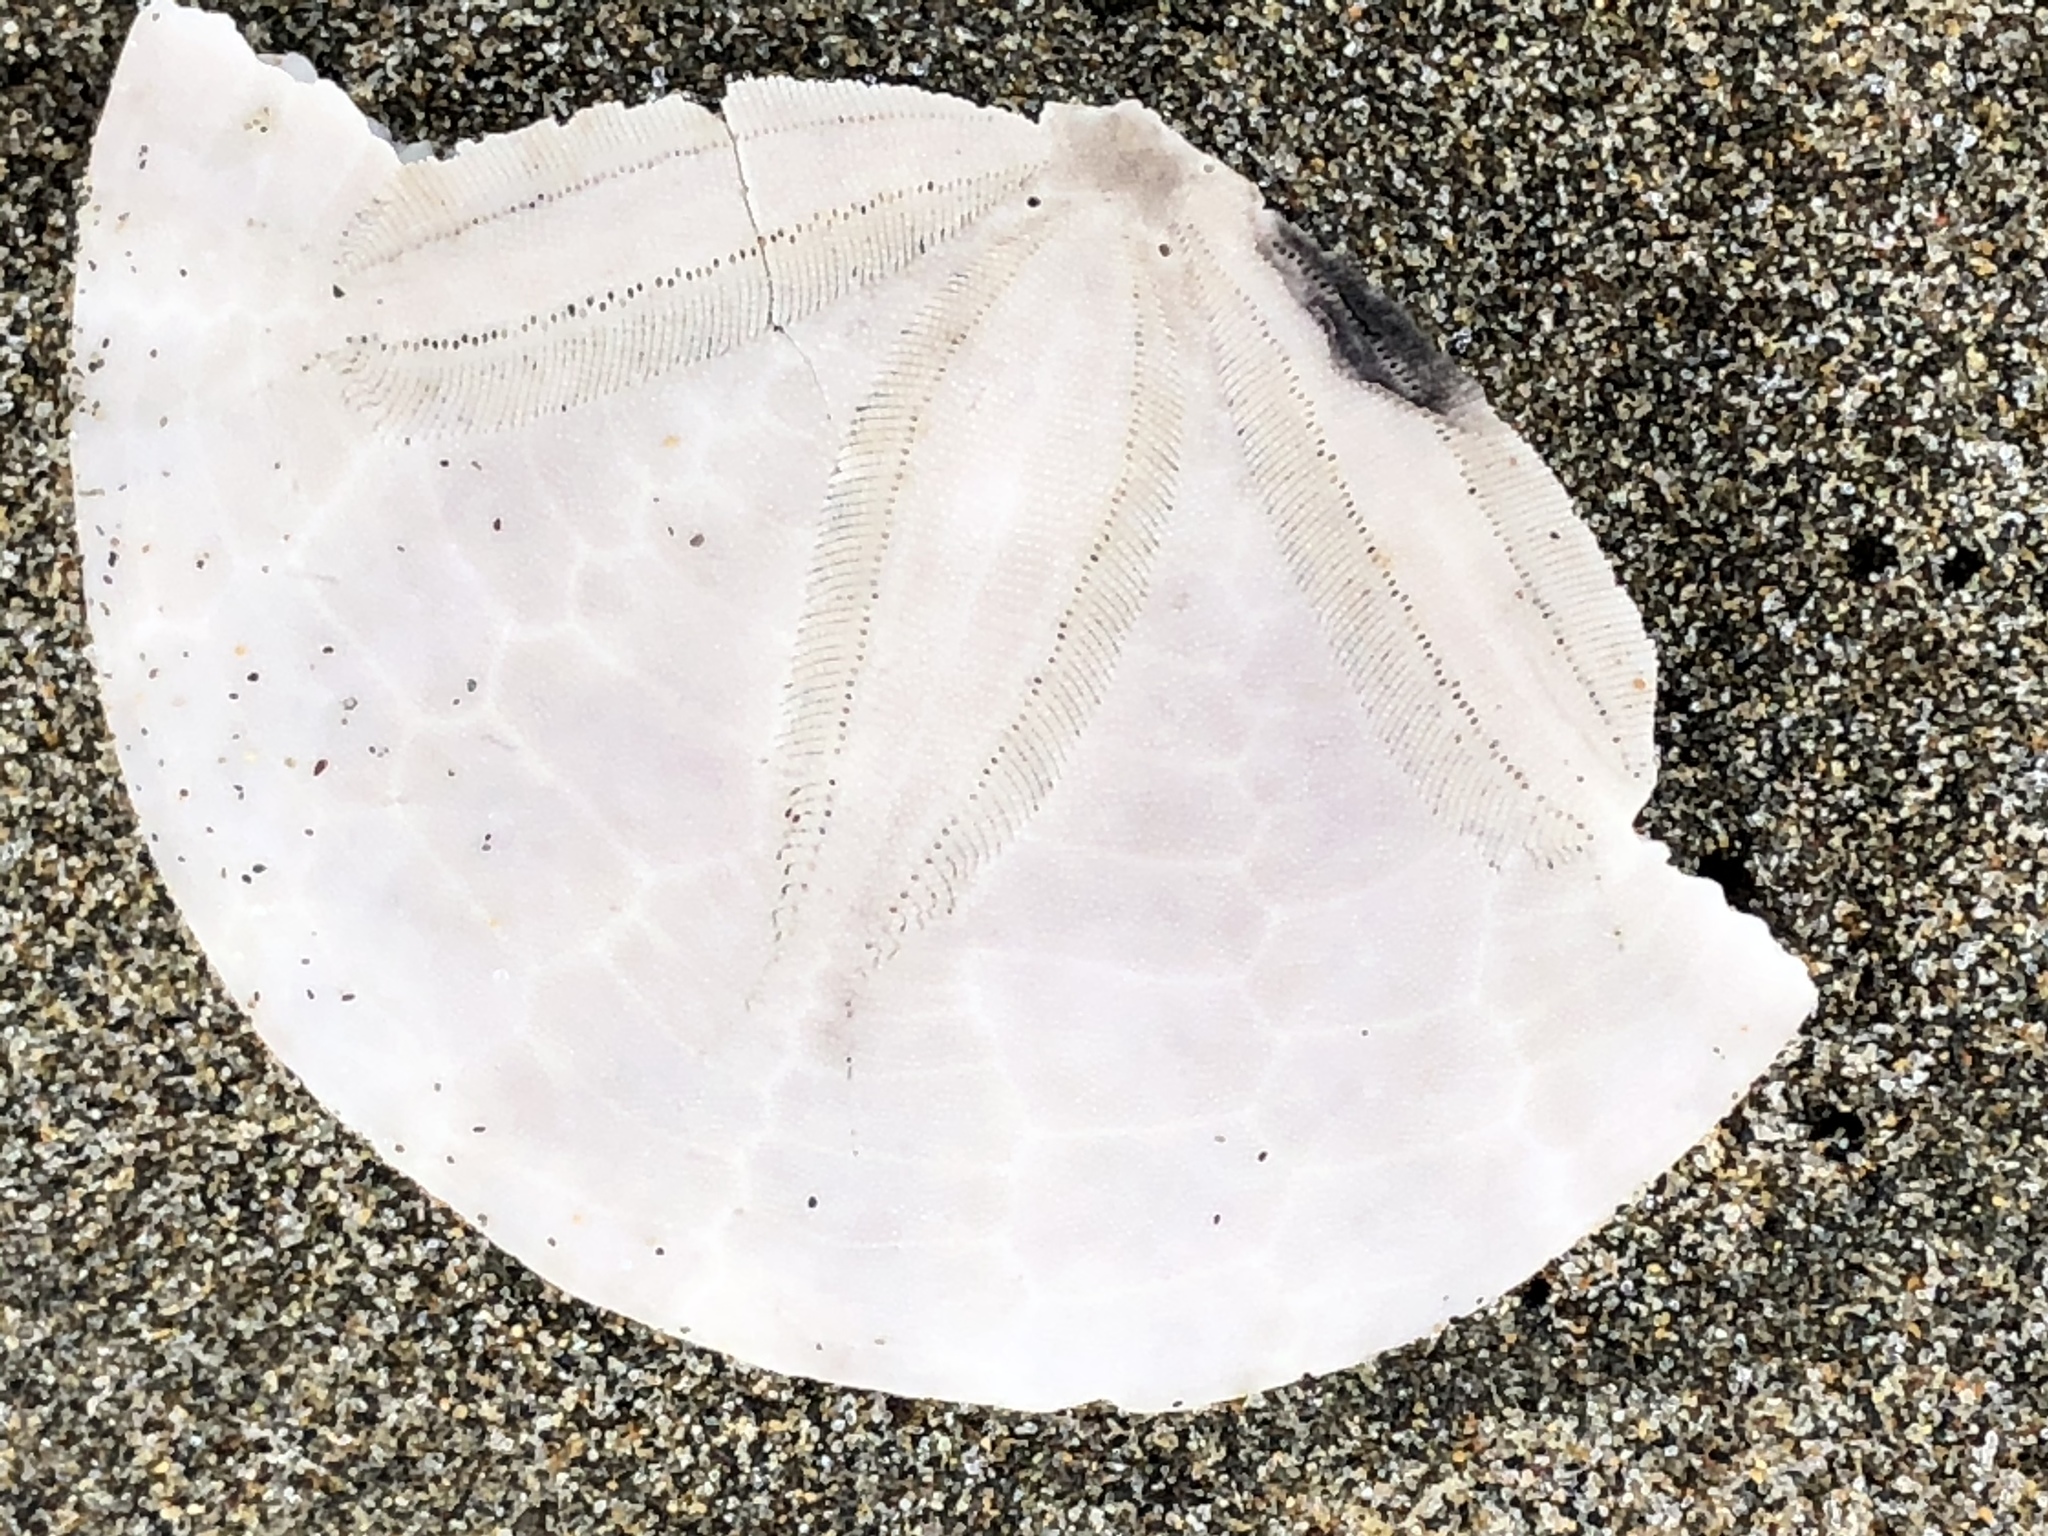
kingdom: Animalia
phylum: Echinodermata
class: Echinoidea
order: Echinolampadacea
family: Dendrasteridae
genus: Dendraster
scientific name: Dendraster excentricus
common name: Eccentric sand dollar sea urchin
